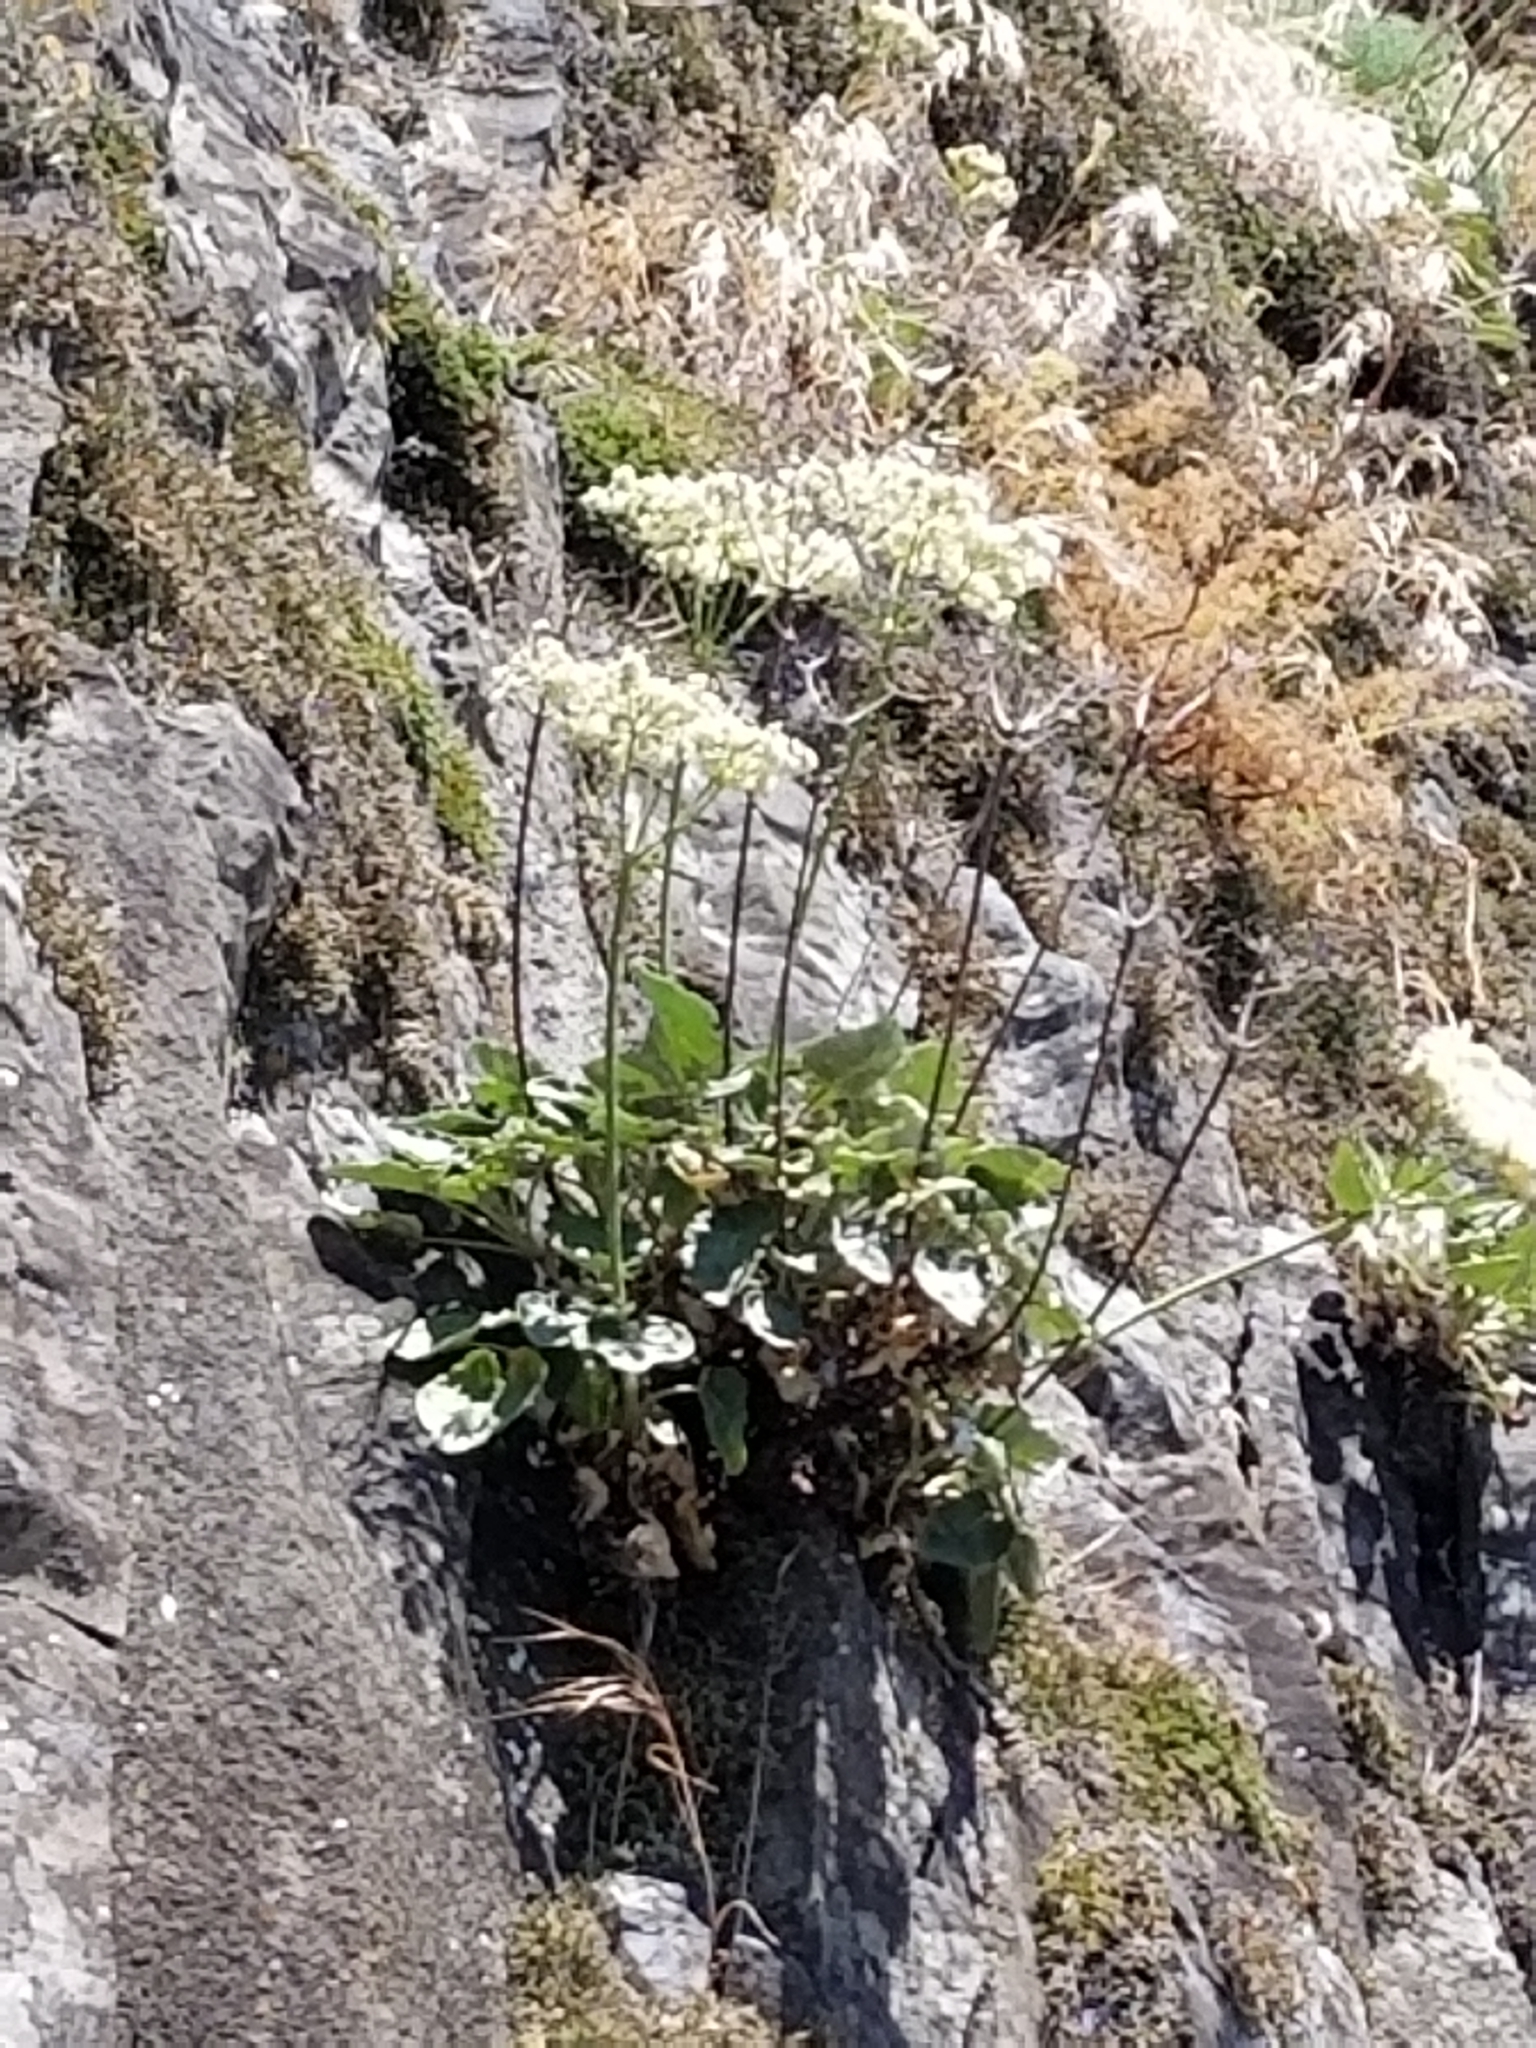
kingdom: Plantae
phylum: Tracheophyta
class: Magnoliopsida
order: Caryophyllales
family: Polygonaceae
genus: Eriogonum
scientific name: Eriogonum compositum
